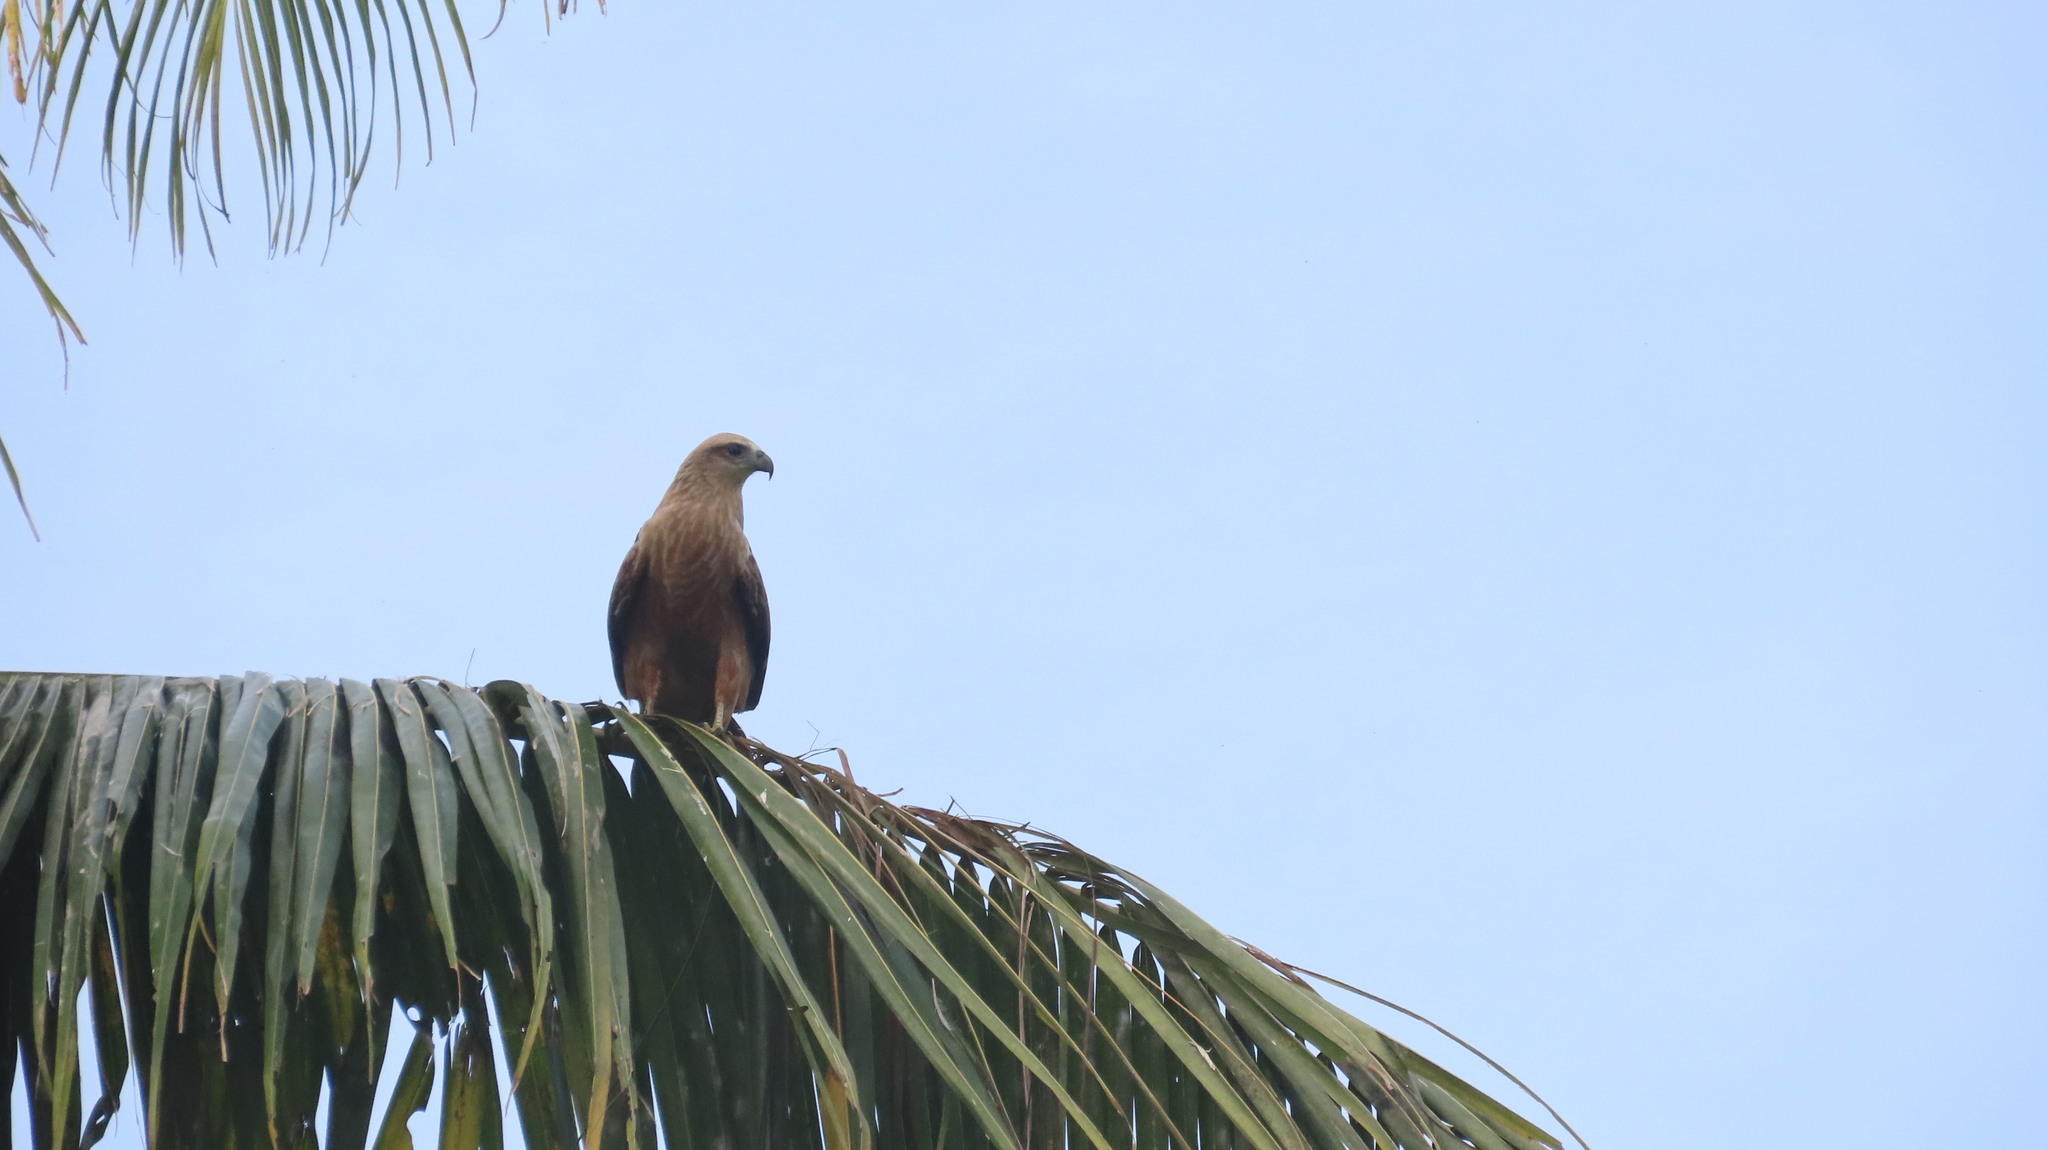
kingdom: Animalia
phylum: Chordata
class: Aves
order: Accipitriformes
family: Accipitridae
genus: Haliastur
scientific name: Haliastur indus
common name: Brahminy kite
